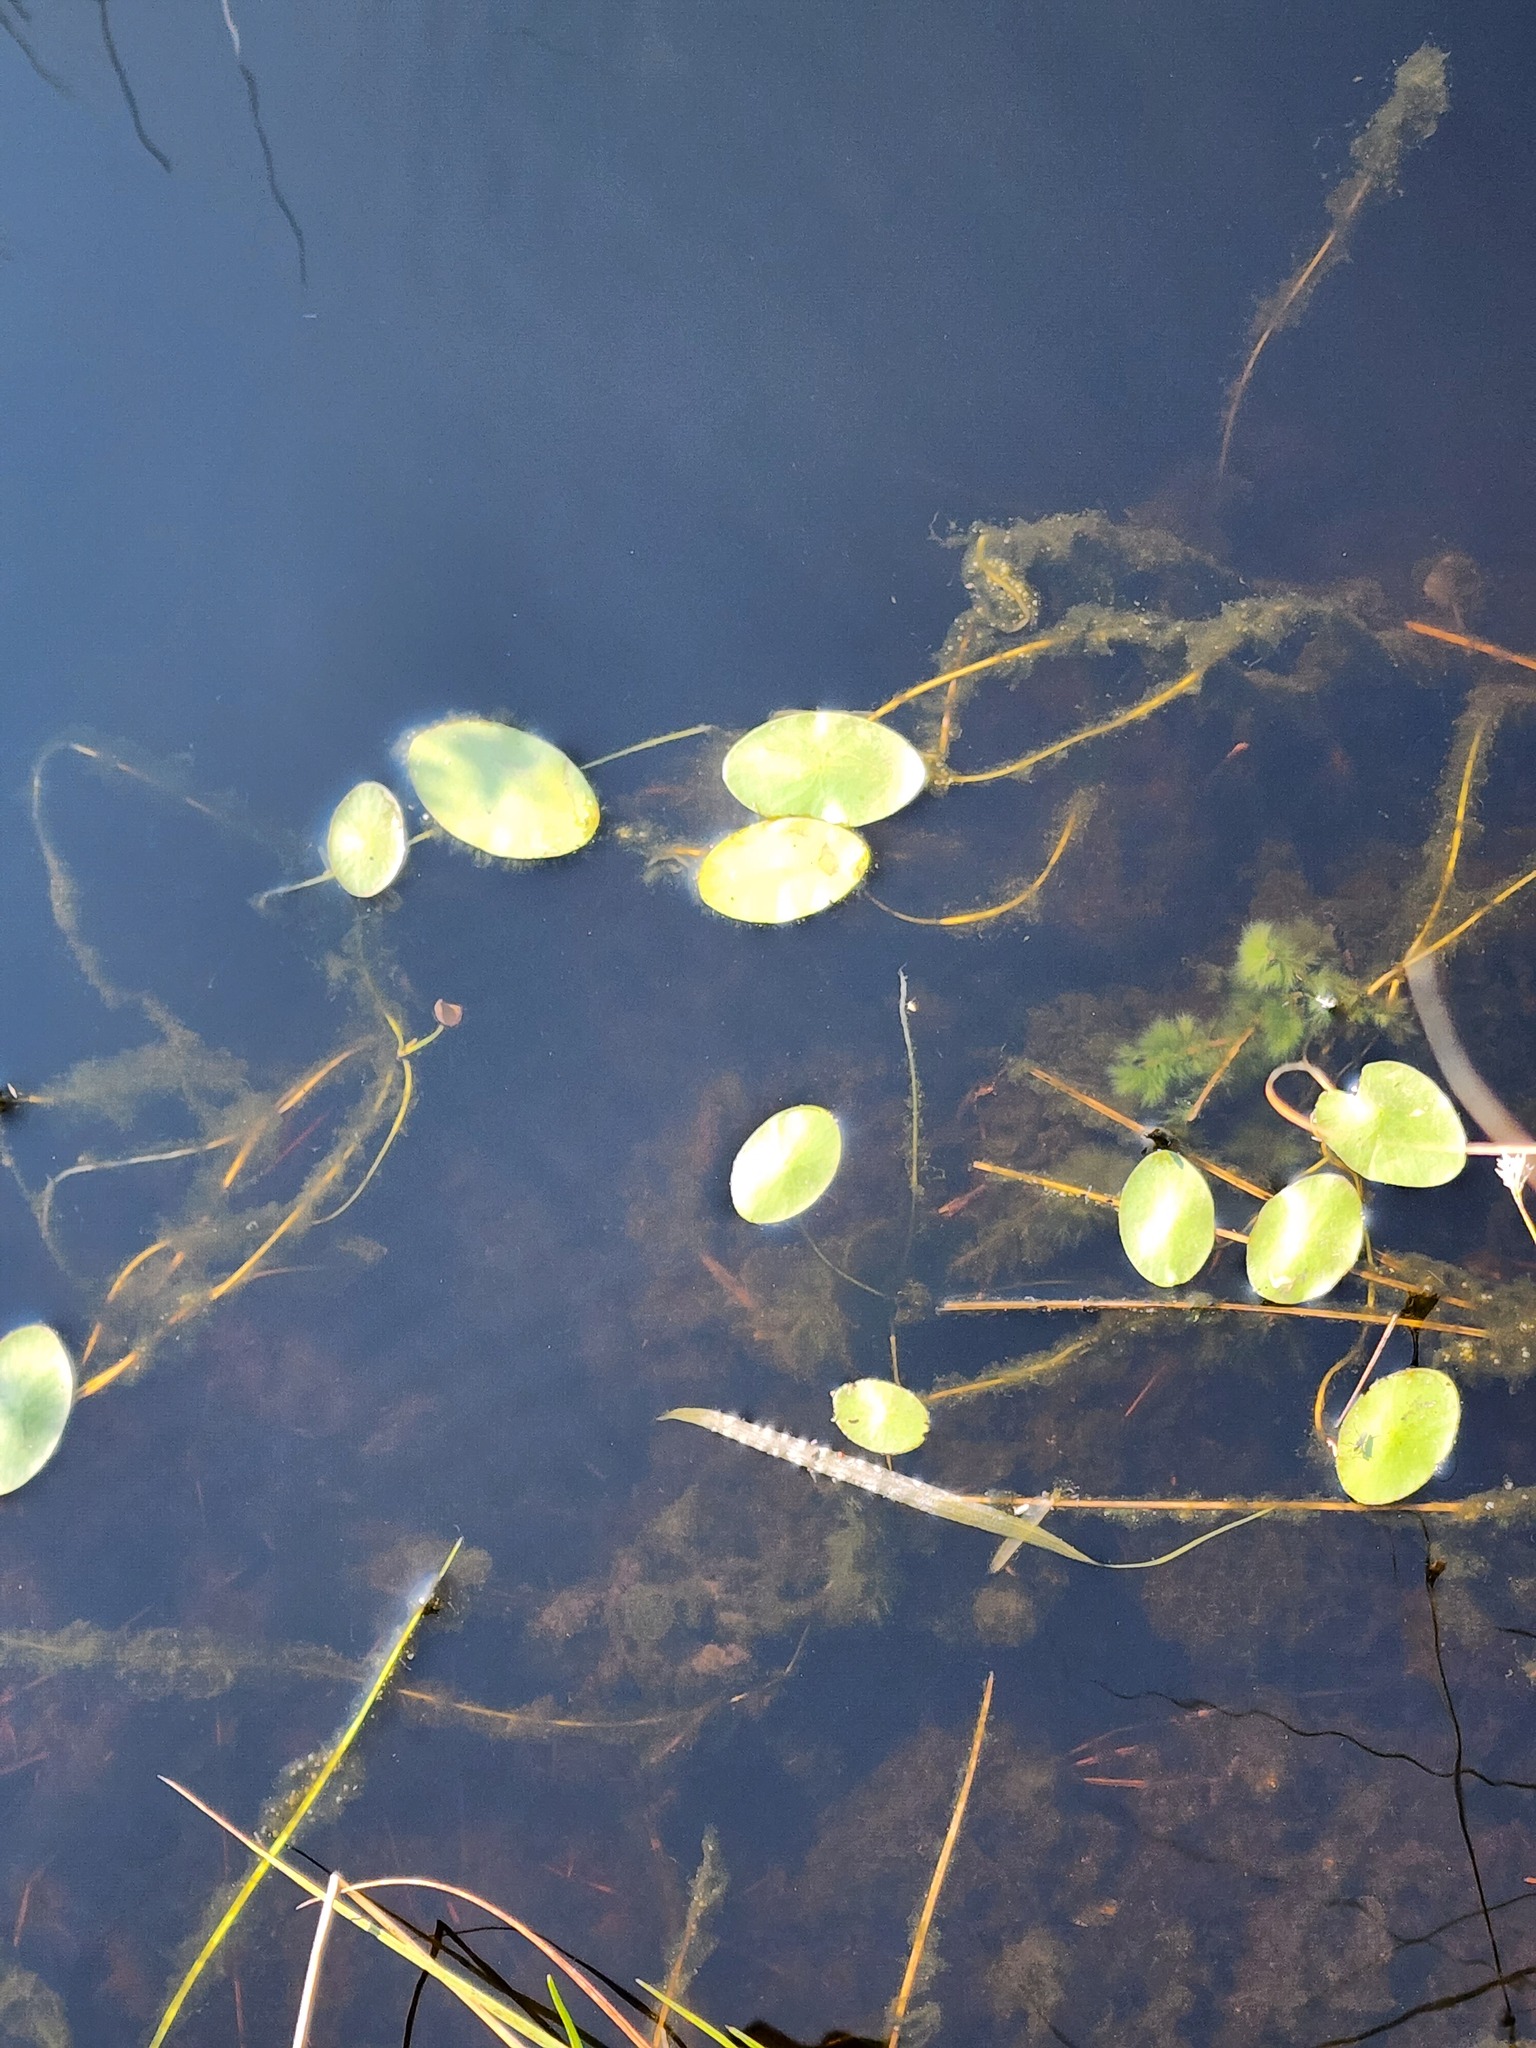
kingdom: Plantae
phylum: Tracheophyta
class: Magnoliopsida
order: Nymphaeales
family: Cabombaceae
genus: Brasenia
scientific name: Brasenia schreberi
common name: Water-shield
